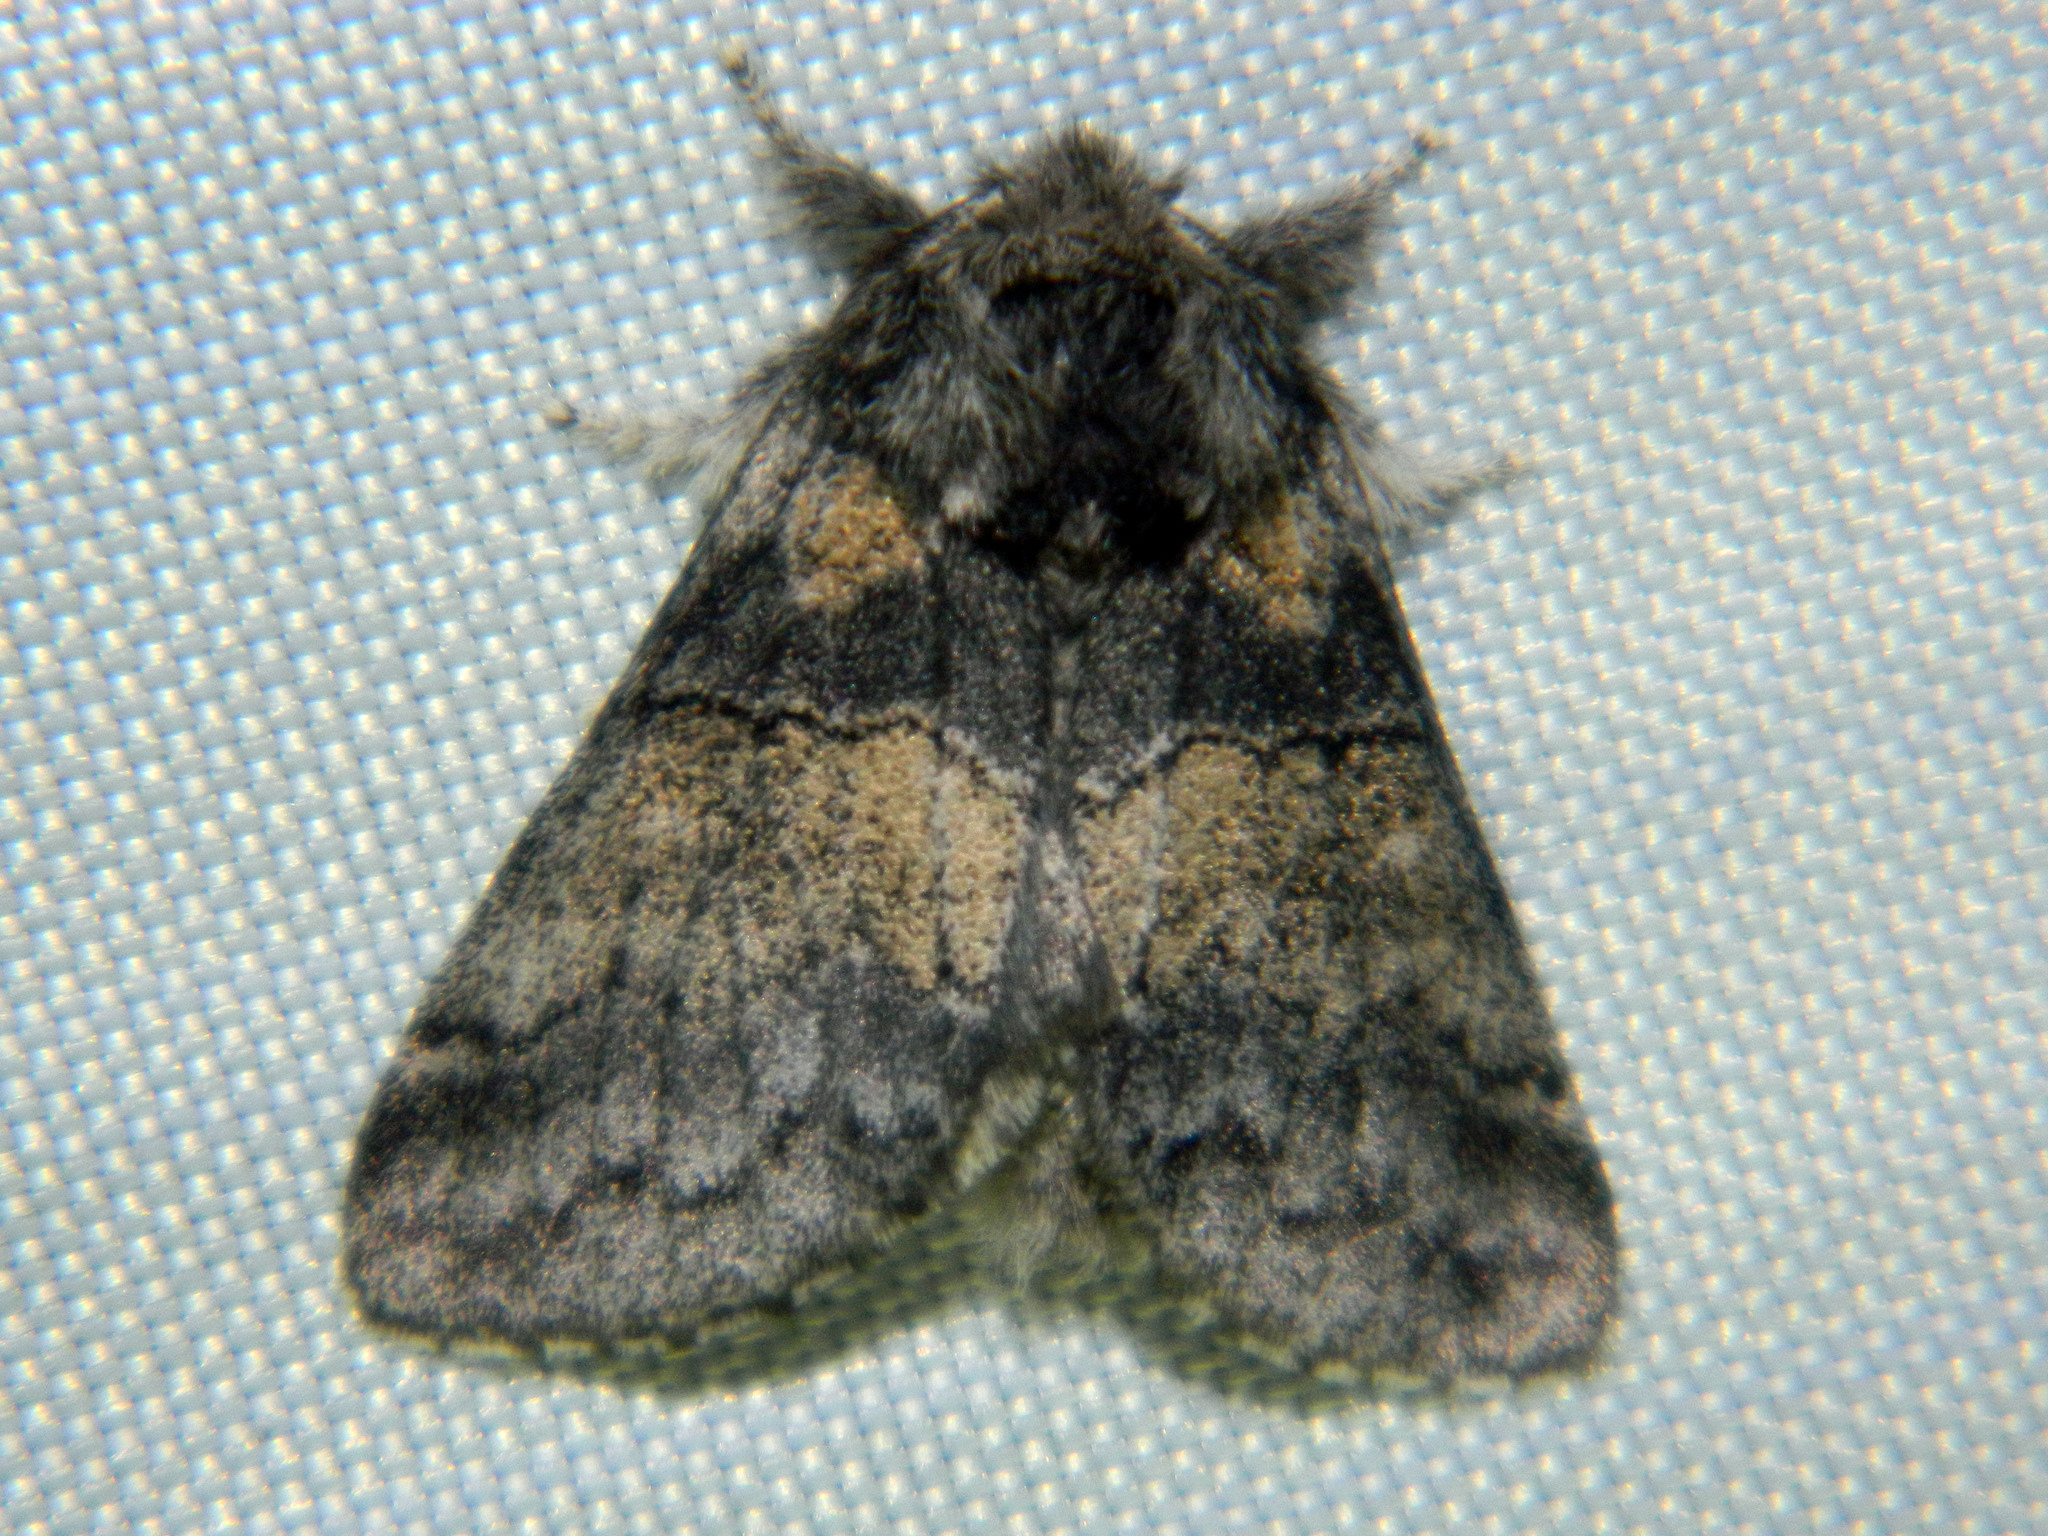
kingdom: Animalia
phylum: Arthropoda
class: Insecta
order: Lepidoptera
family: Notodontidae
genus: Gluphisia
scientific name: Gluphisia septentrionis
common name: Common gluphisia
